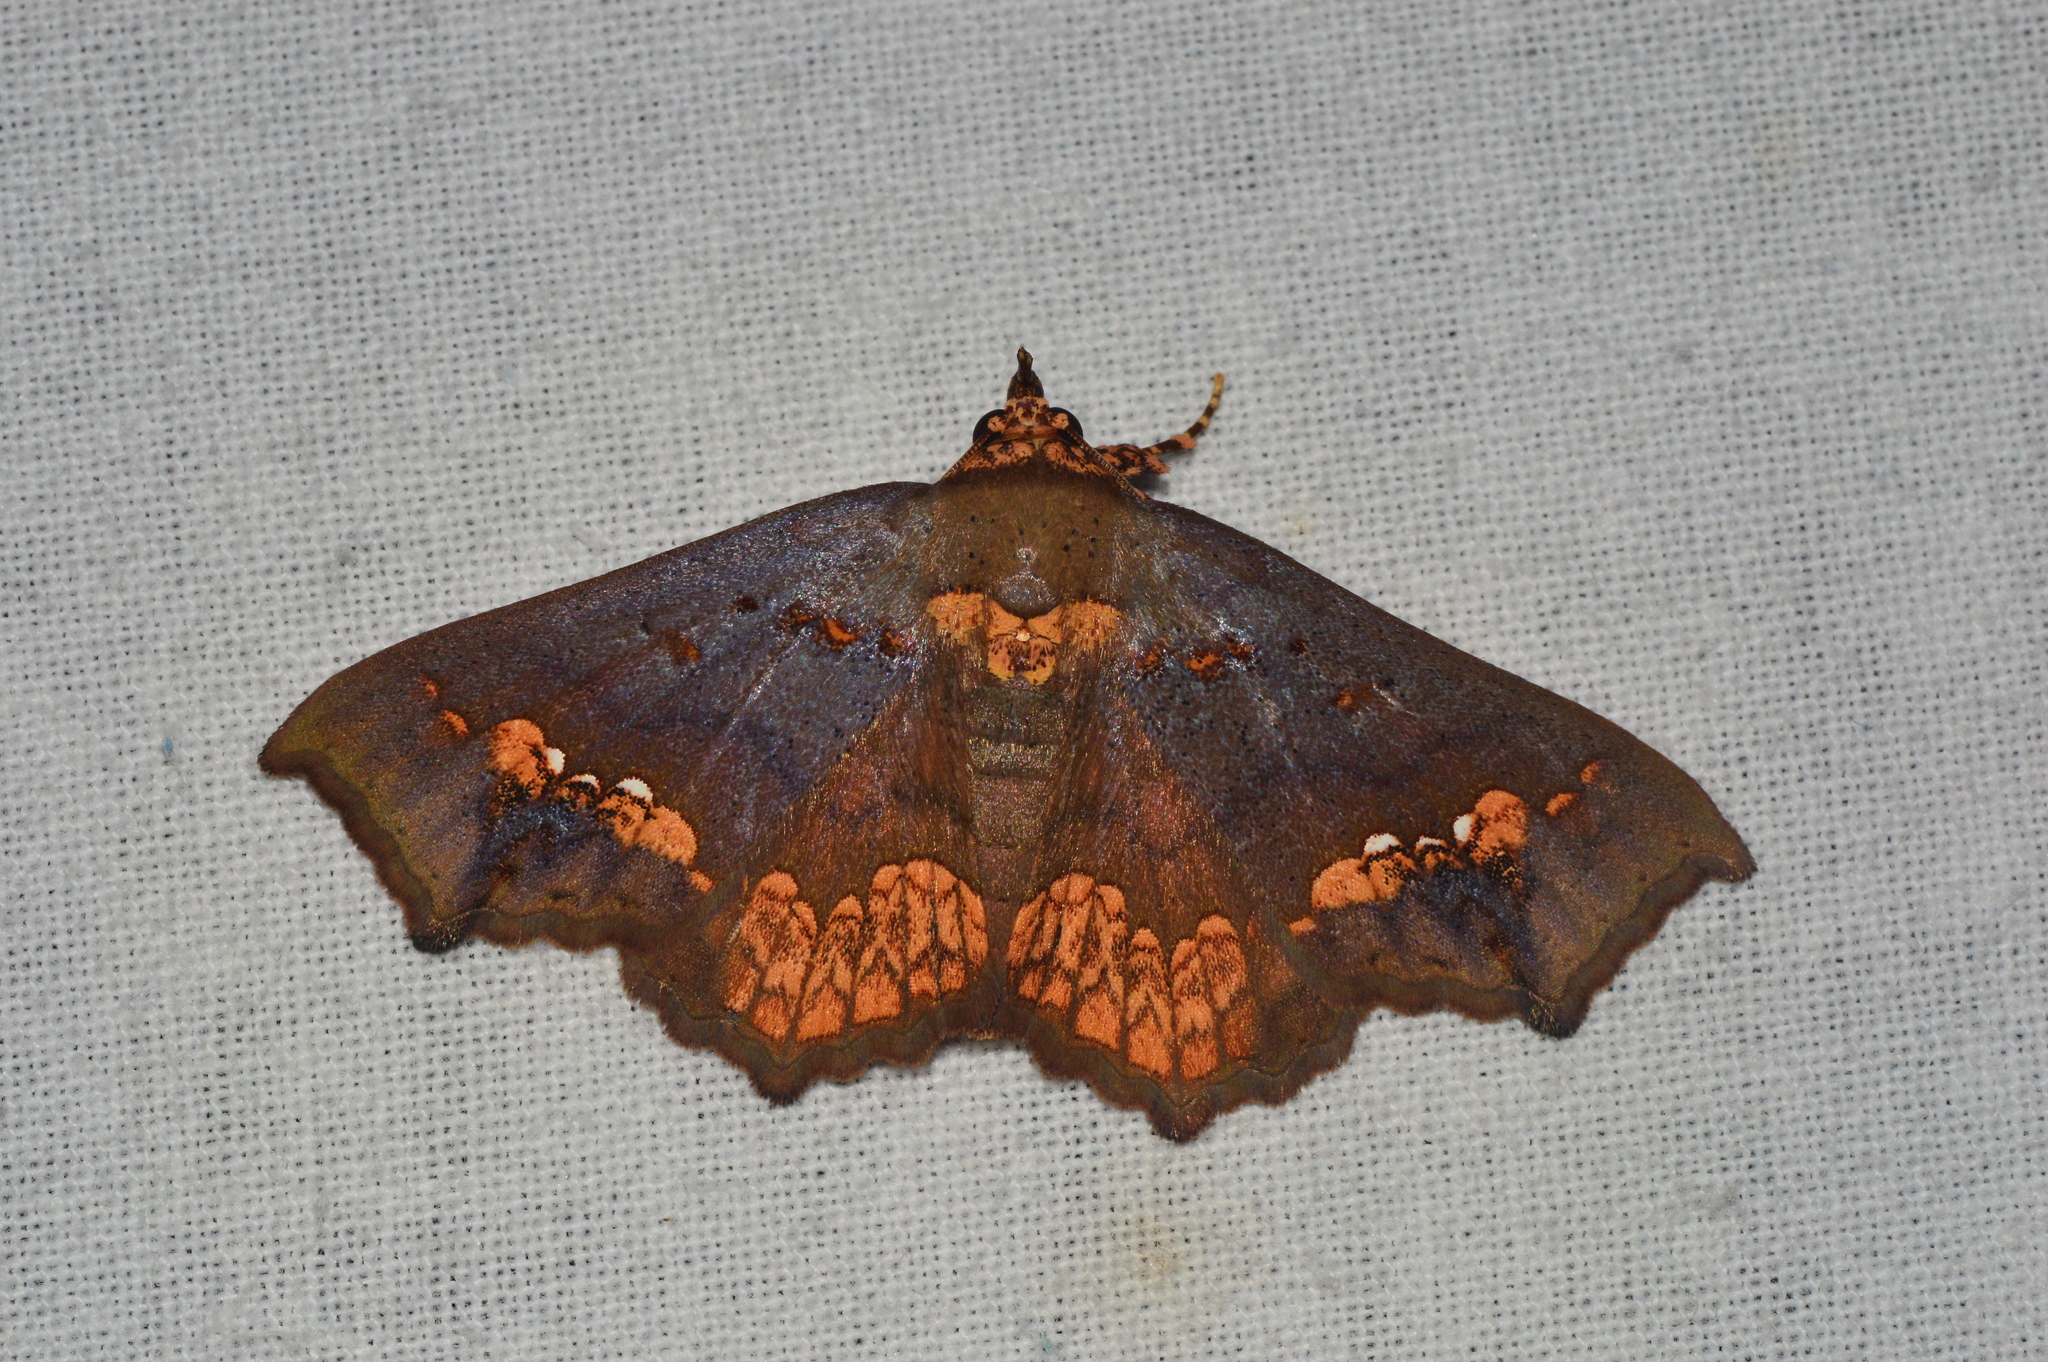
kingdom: Animalia
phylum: Arthropoda
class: Insecta
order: Lepidoptera
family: Erebidae
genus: Lopharthrum
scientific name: Lopharthrum comprimens
